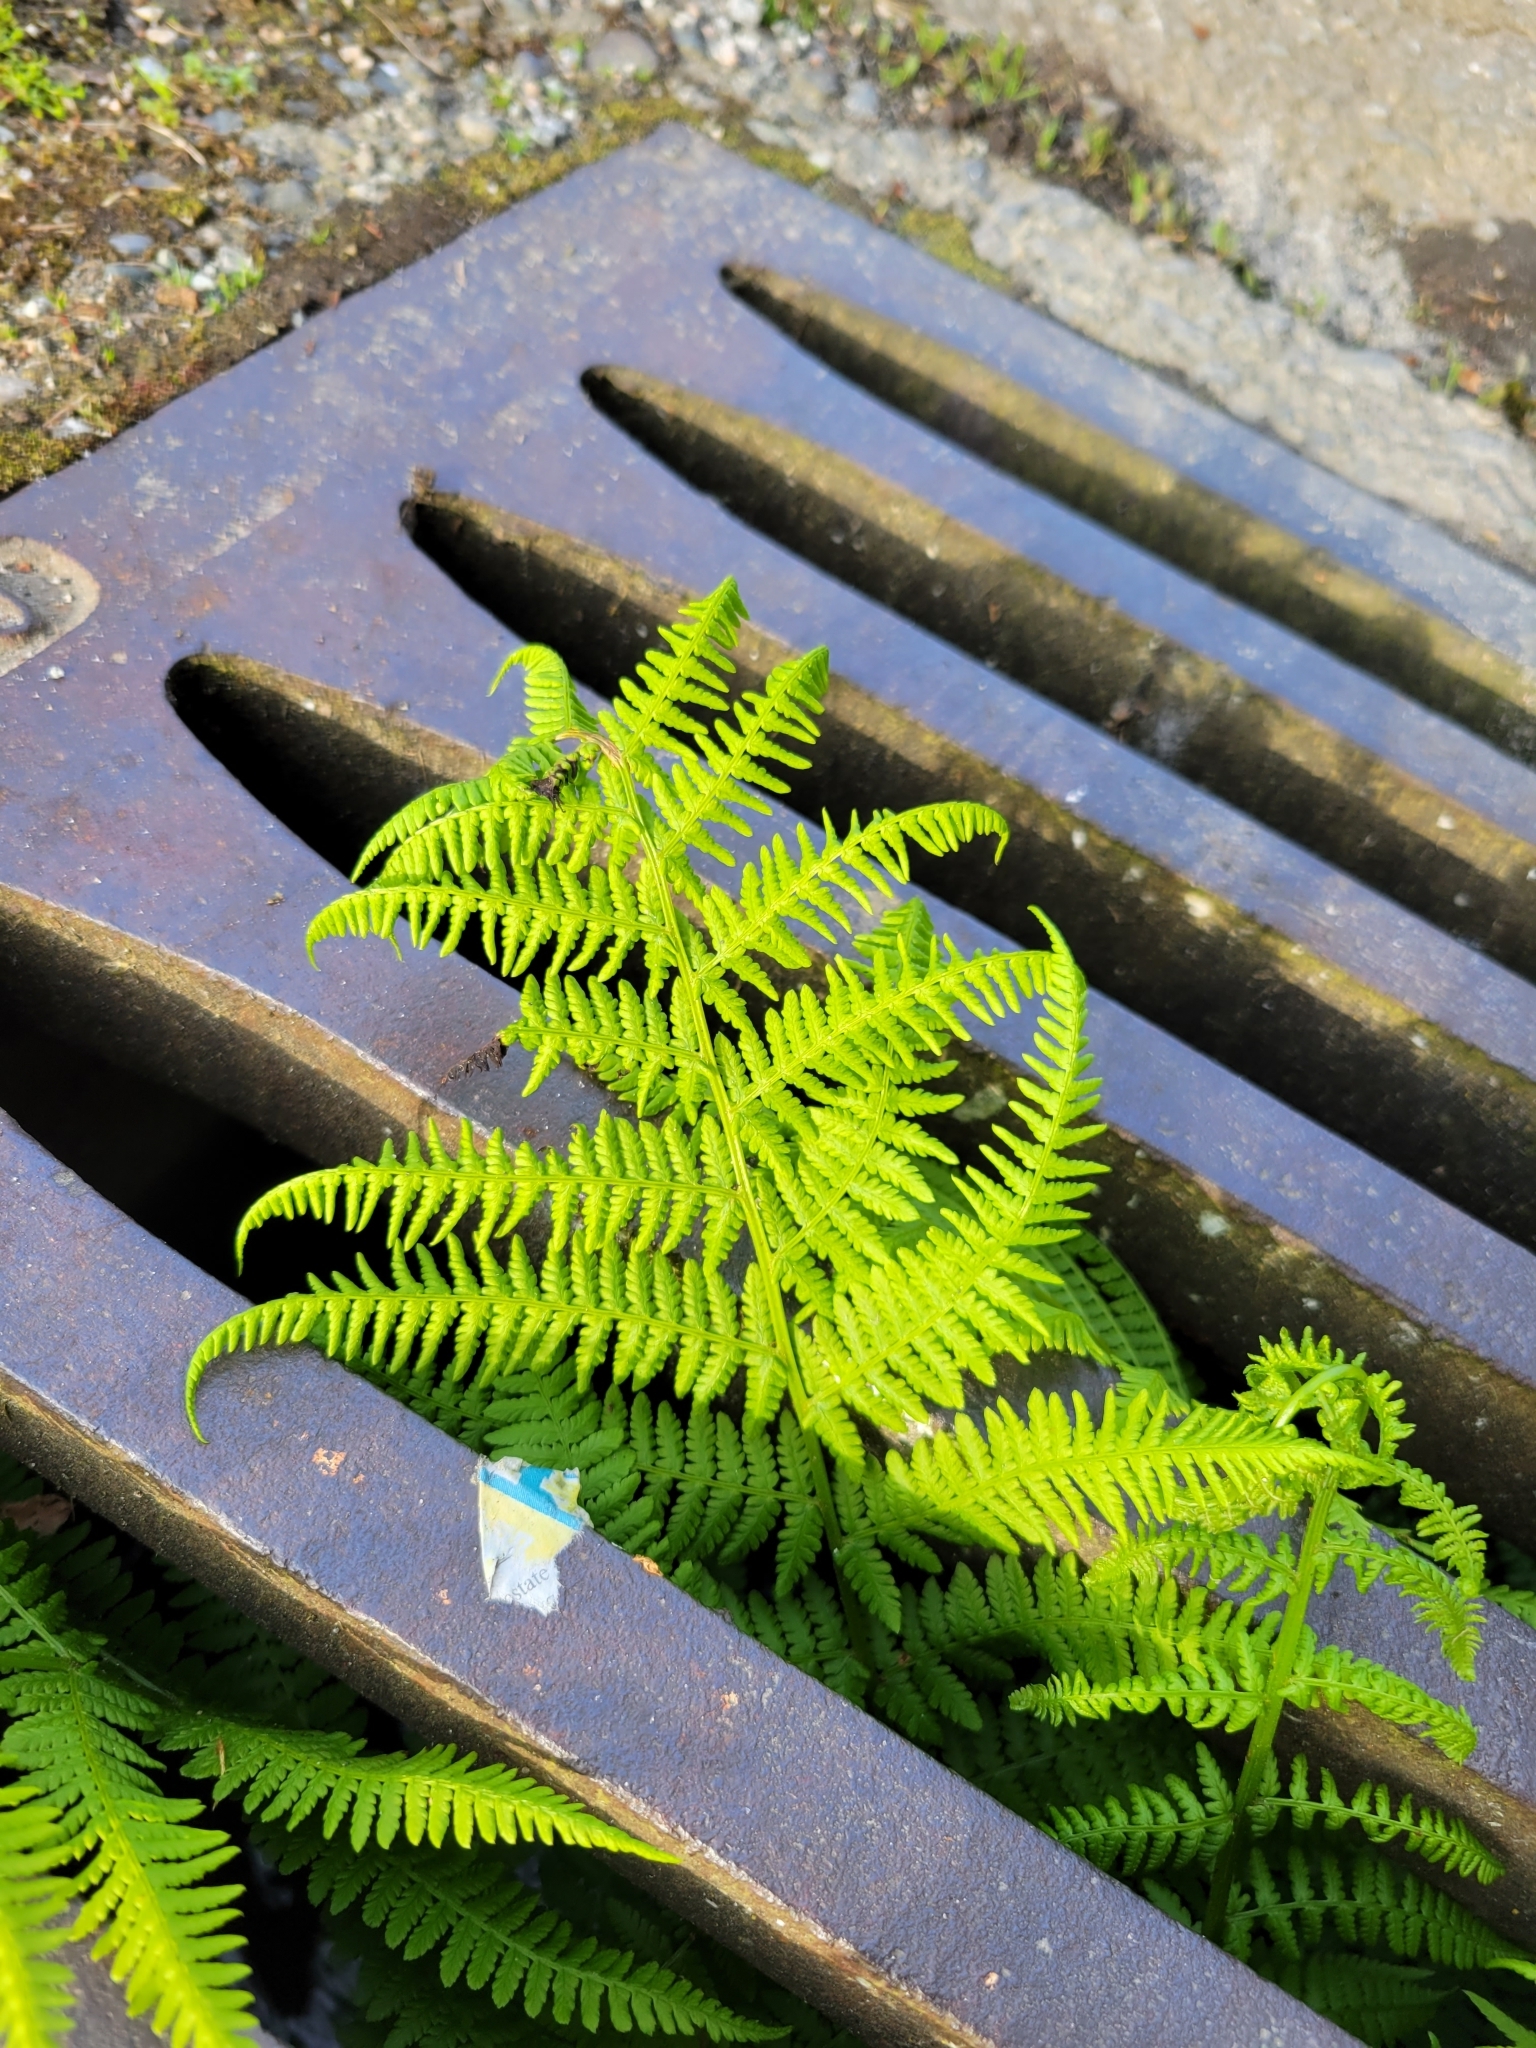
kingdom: Plantae
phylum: Tracheophyta
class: Polypodiopsida
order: Polypodiales
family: Athyriaceae
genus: Athyrium
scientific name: Athyrium cyclosorum
